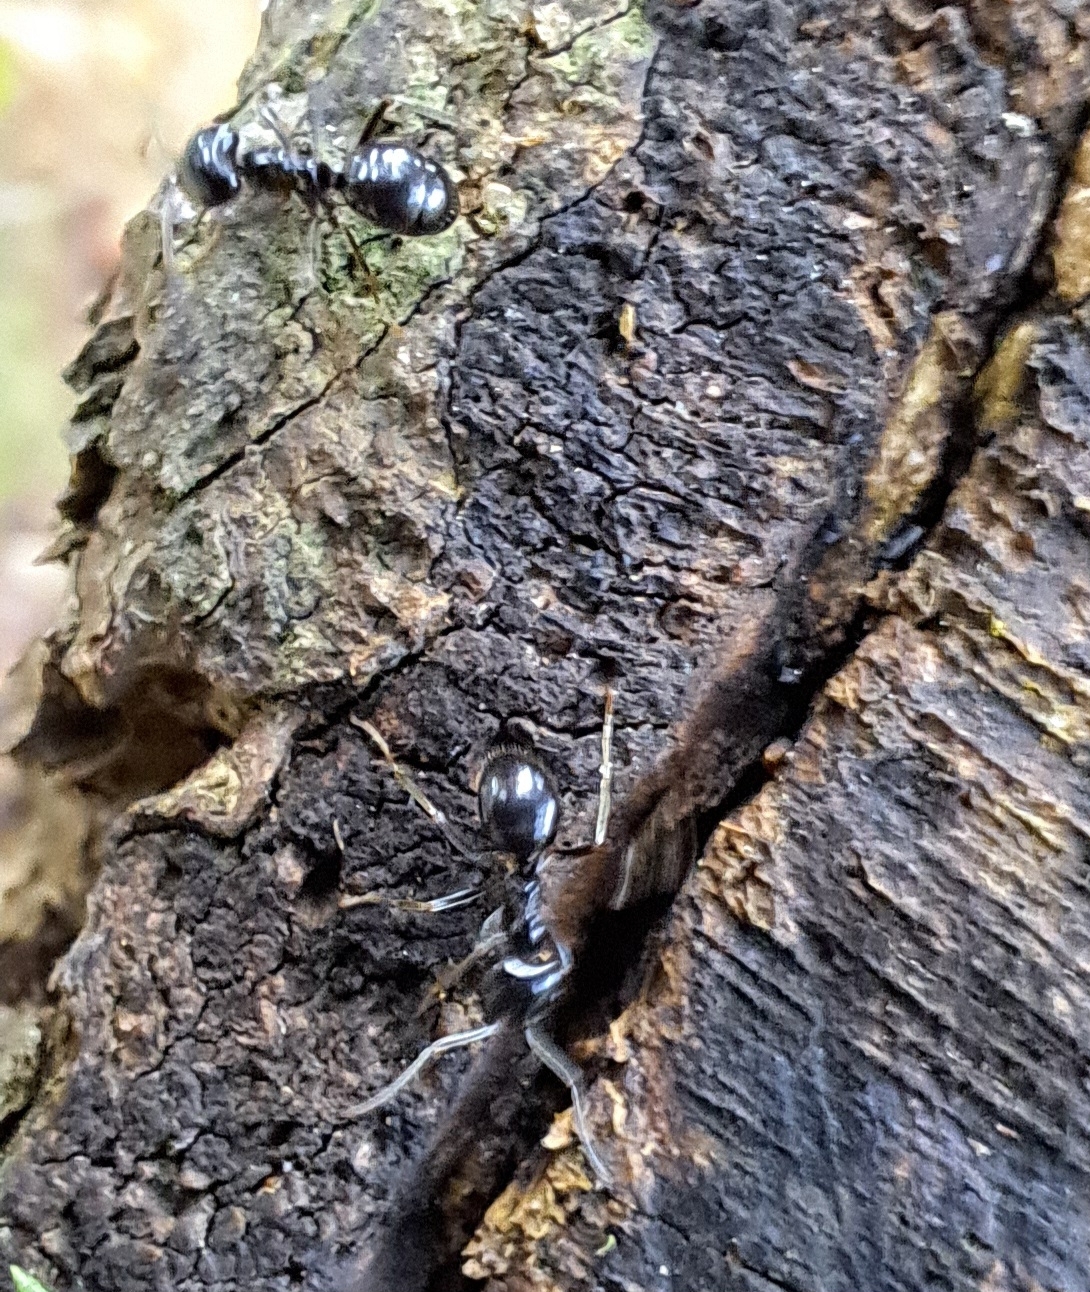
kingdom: Animalia
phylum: Arthropoda
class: Insecta
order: Hymenoptera
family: Formicidae
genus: Lasius
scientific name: Lasius fuliginosus
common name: Jet ant
